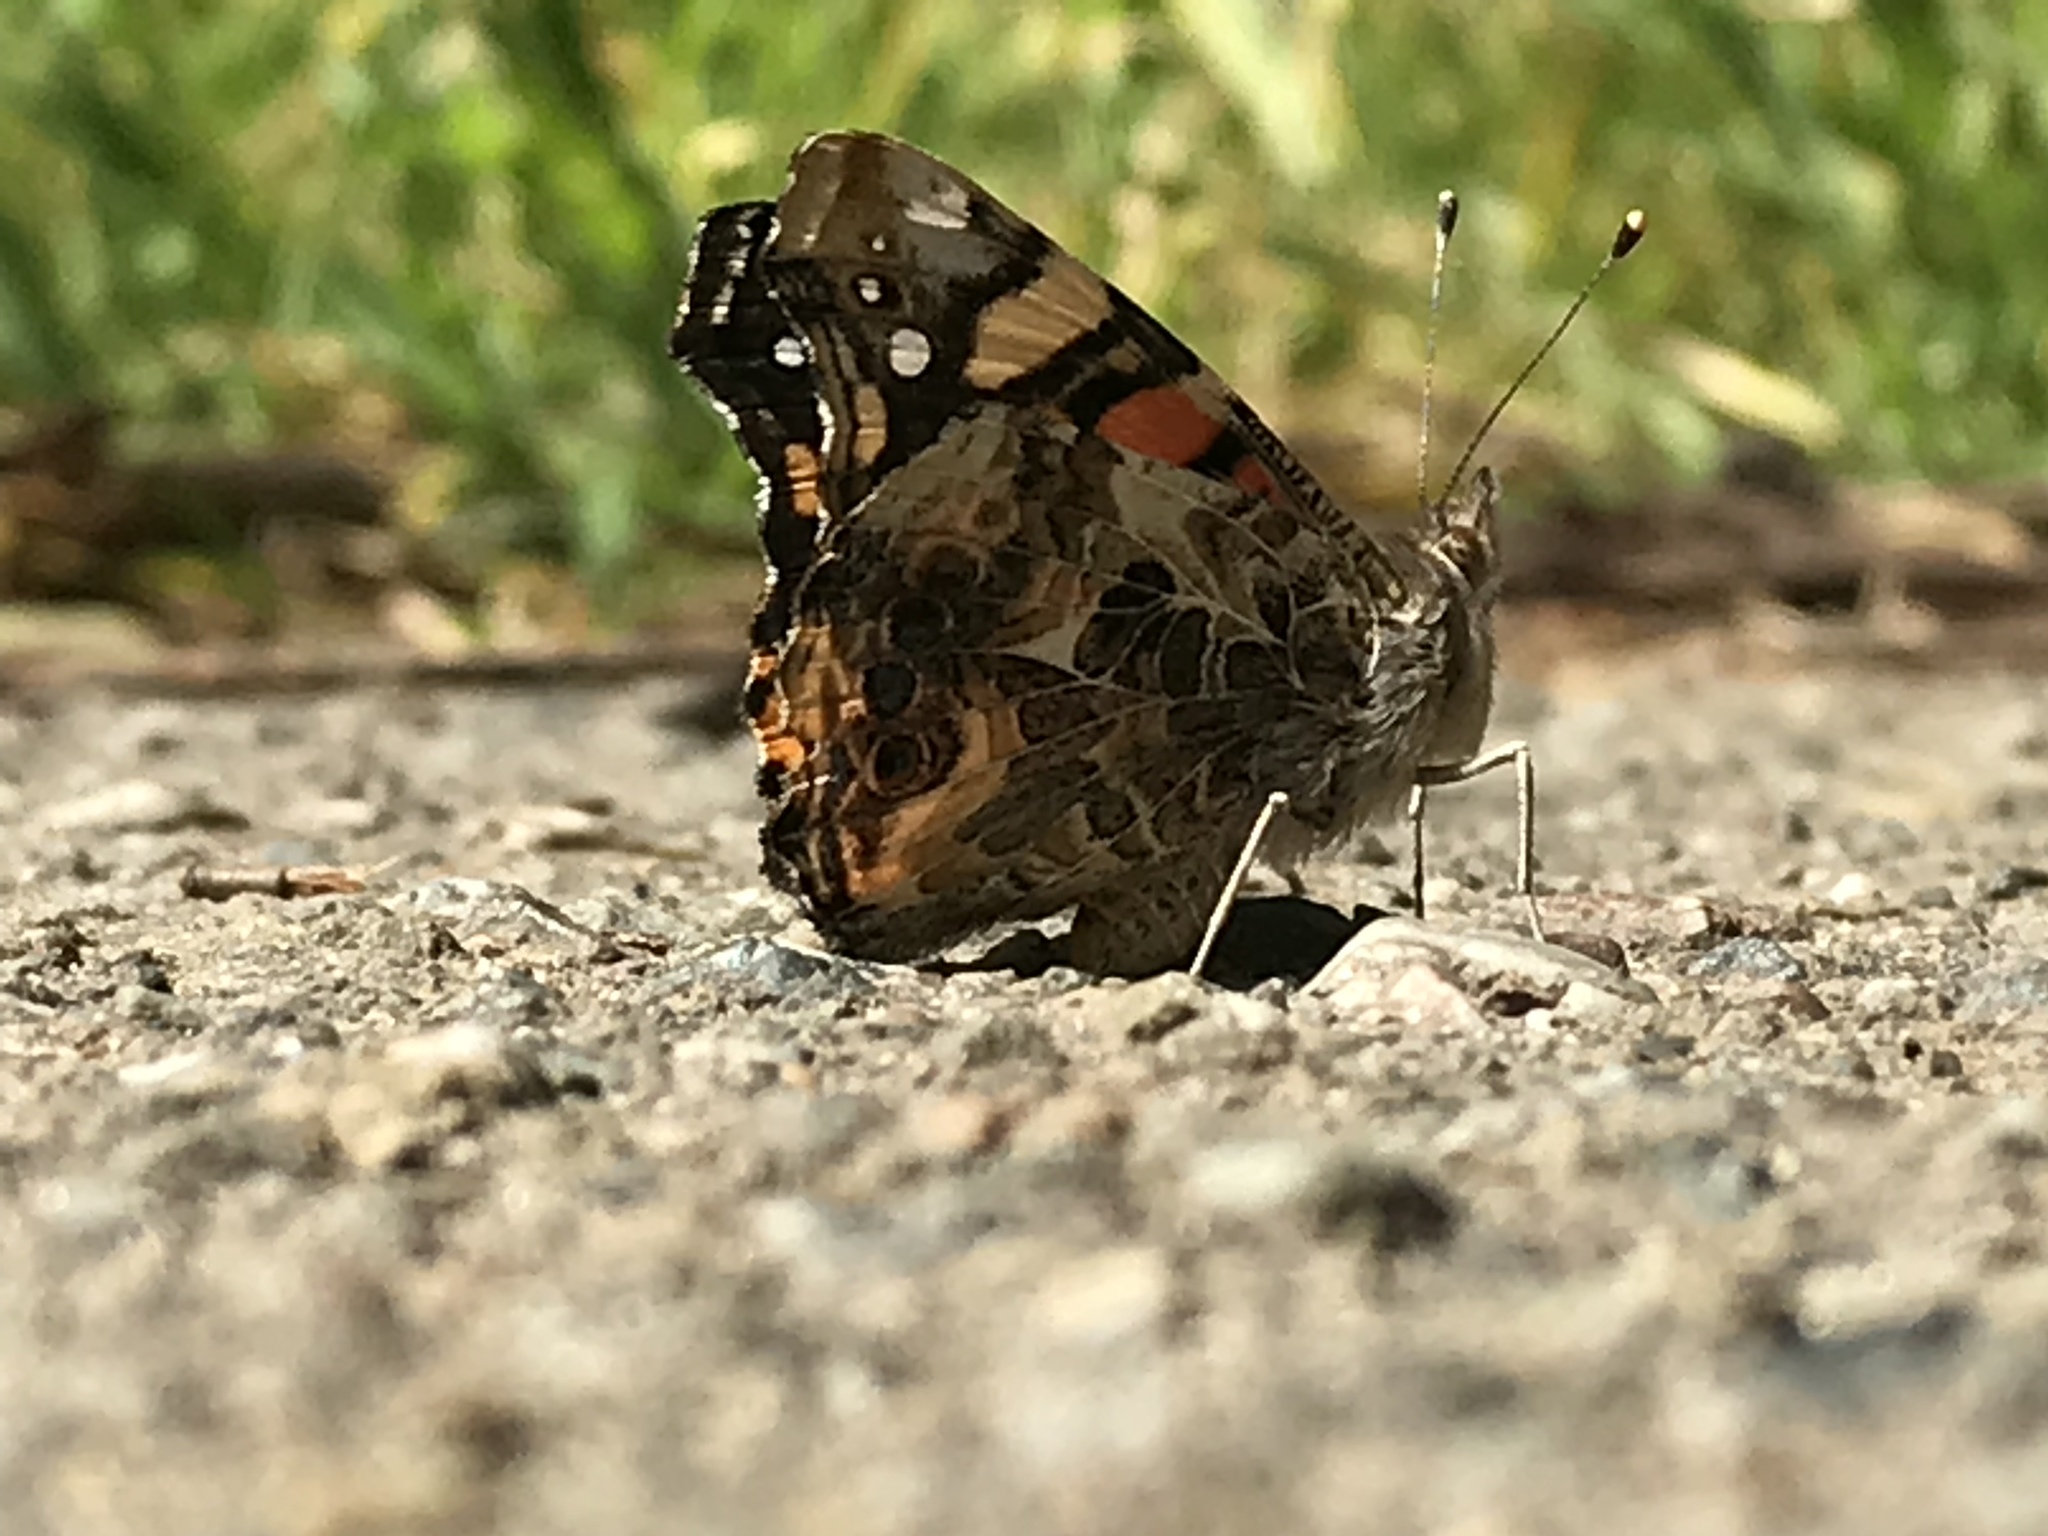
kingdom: Animalia
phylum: Arthropoda
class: Insecta
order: Lepidoptera
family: Nymphalidae
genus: Vanessa
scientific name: Vanessa annabella
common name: West coast lady
